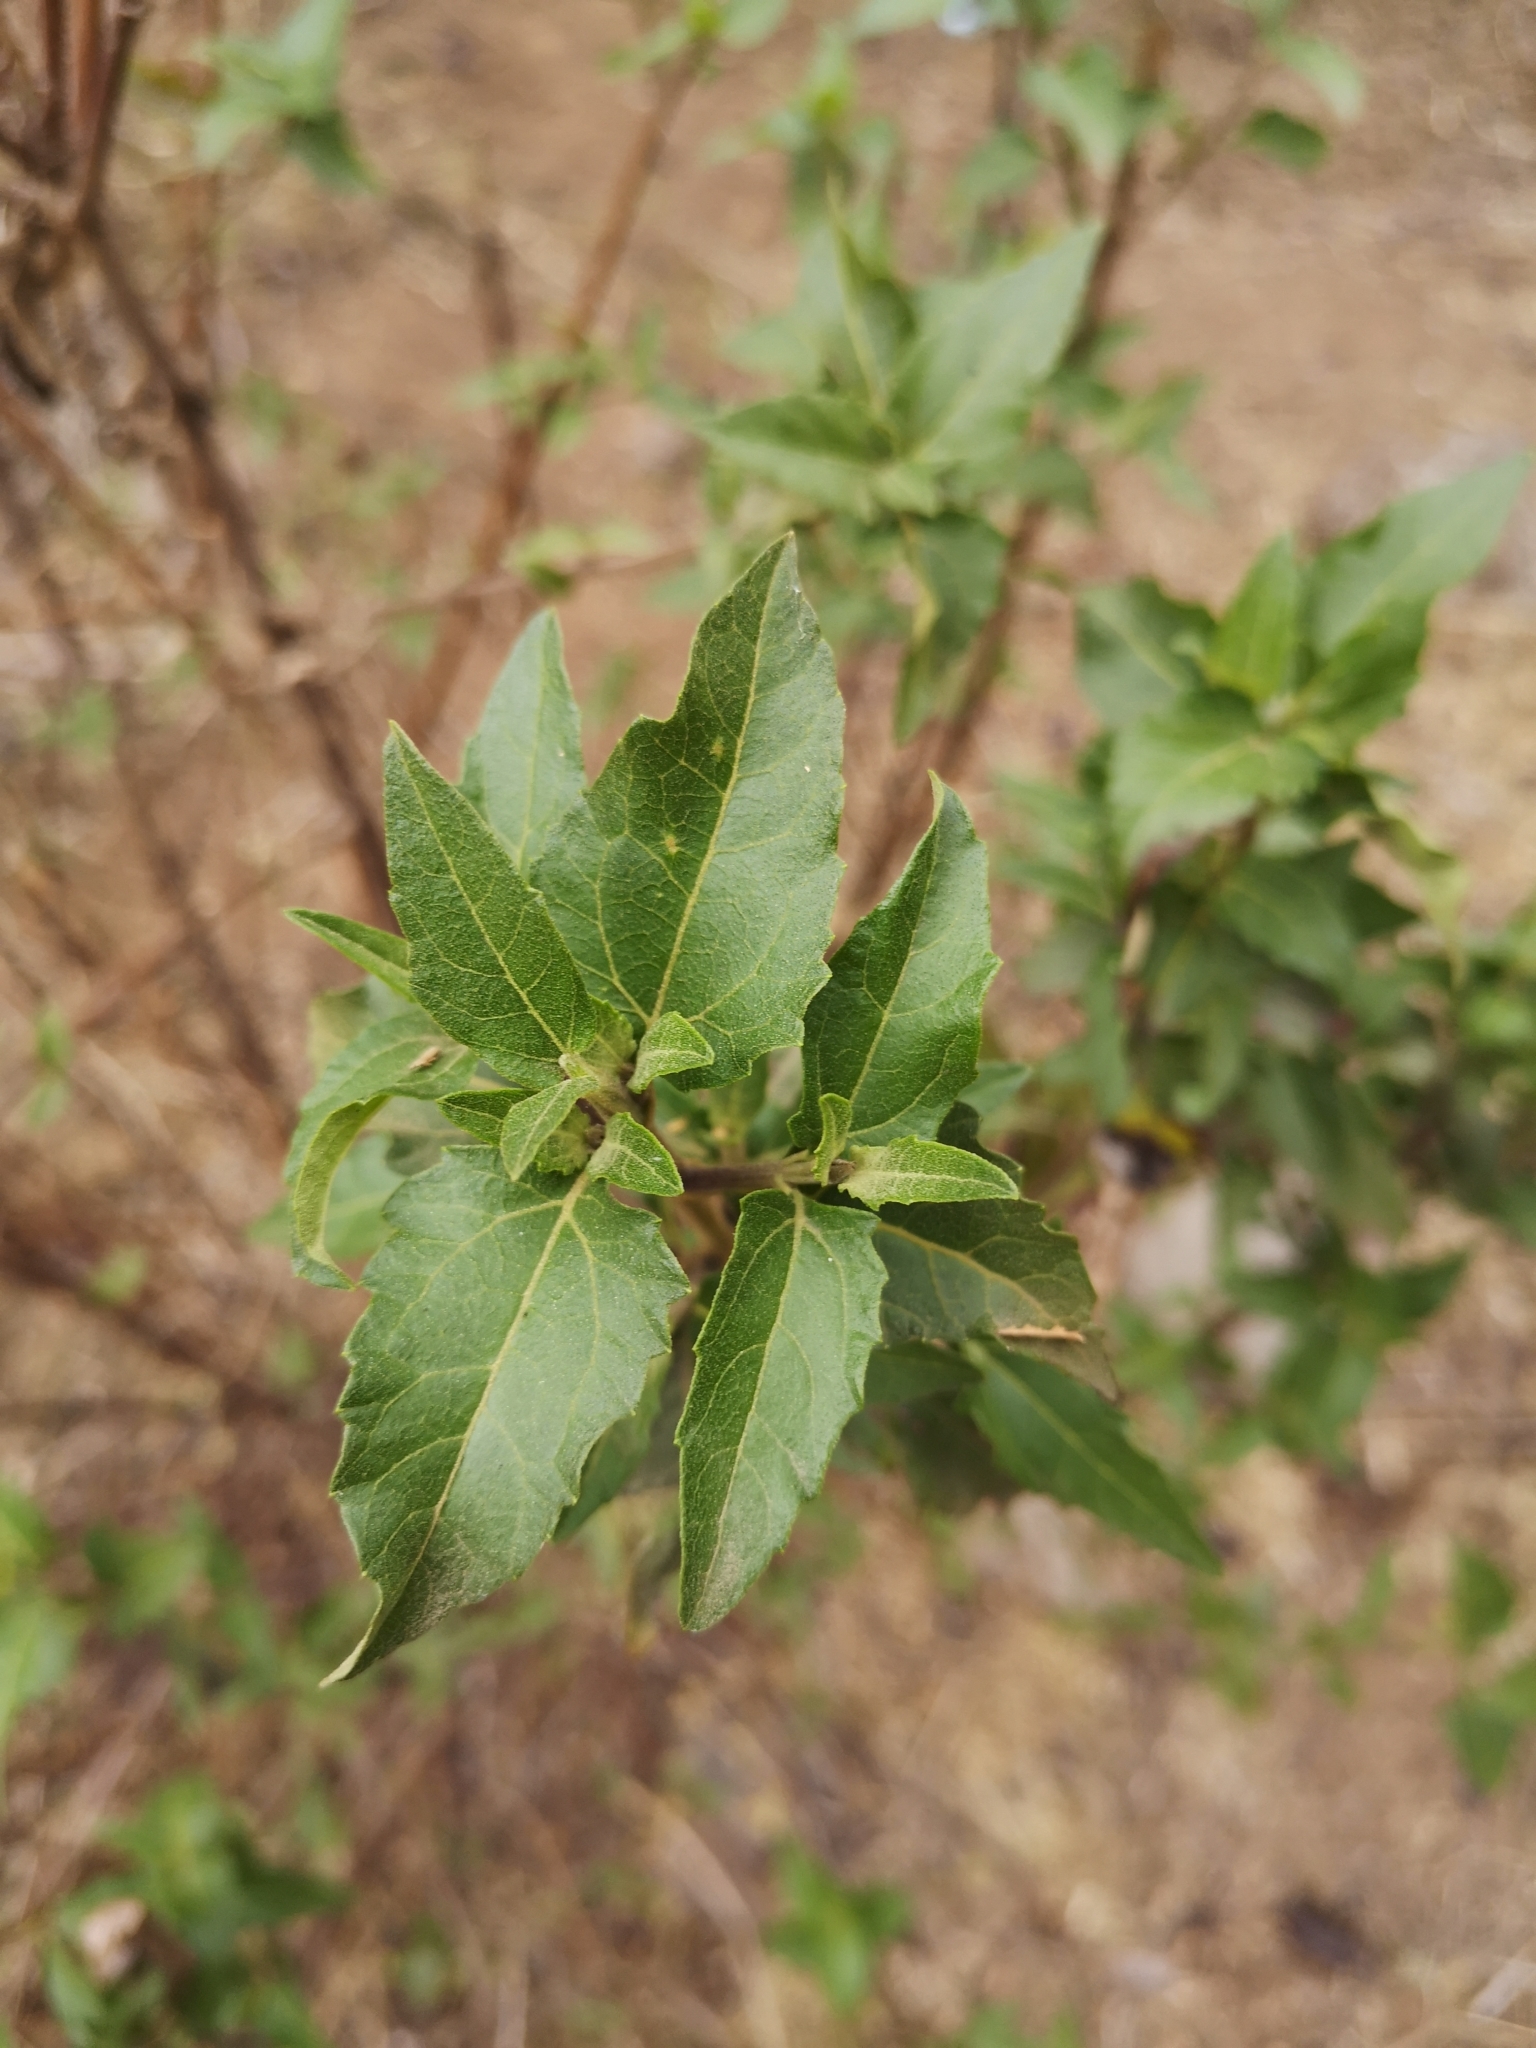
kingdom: Plantae
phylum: Tracheophyta
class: Magnoliopsida
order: Asterales
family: Asteraceae
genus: Podanthus
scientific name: Podanthus mitiqui
